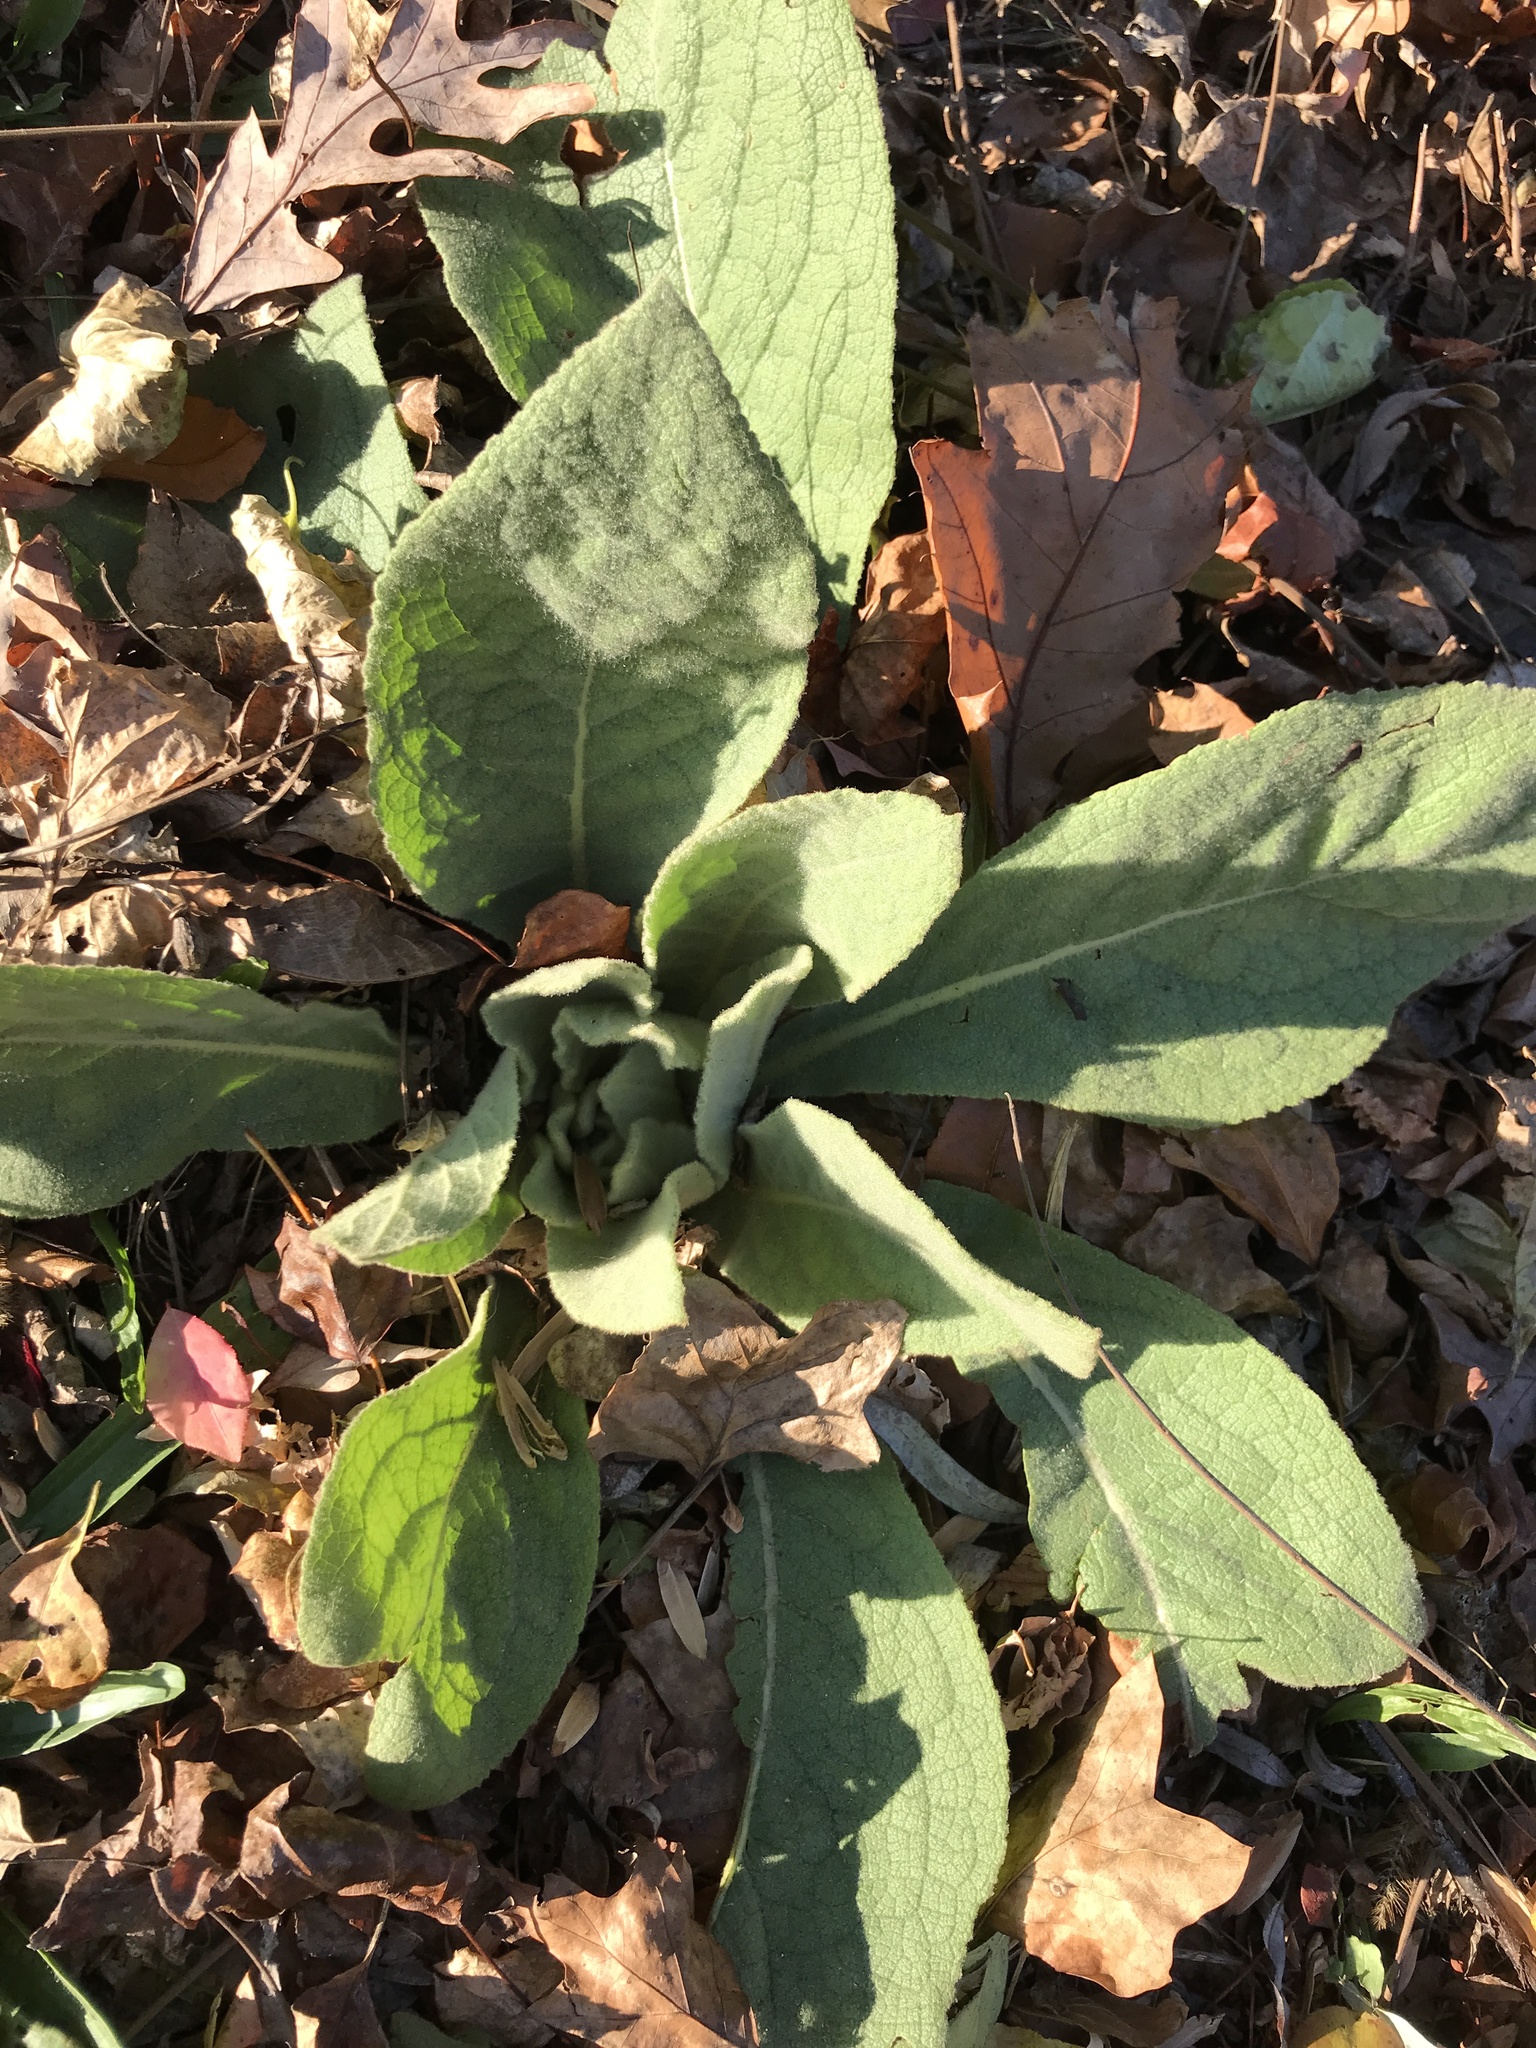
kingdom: Plantae
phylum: Tracheophyta
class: Magnoliopsida
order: Lamiales
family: Scrophulariaceae
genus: Verbascum
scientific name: Verbascum thapsus
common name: Common mullein
